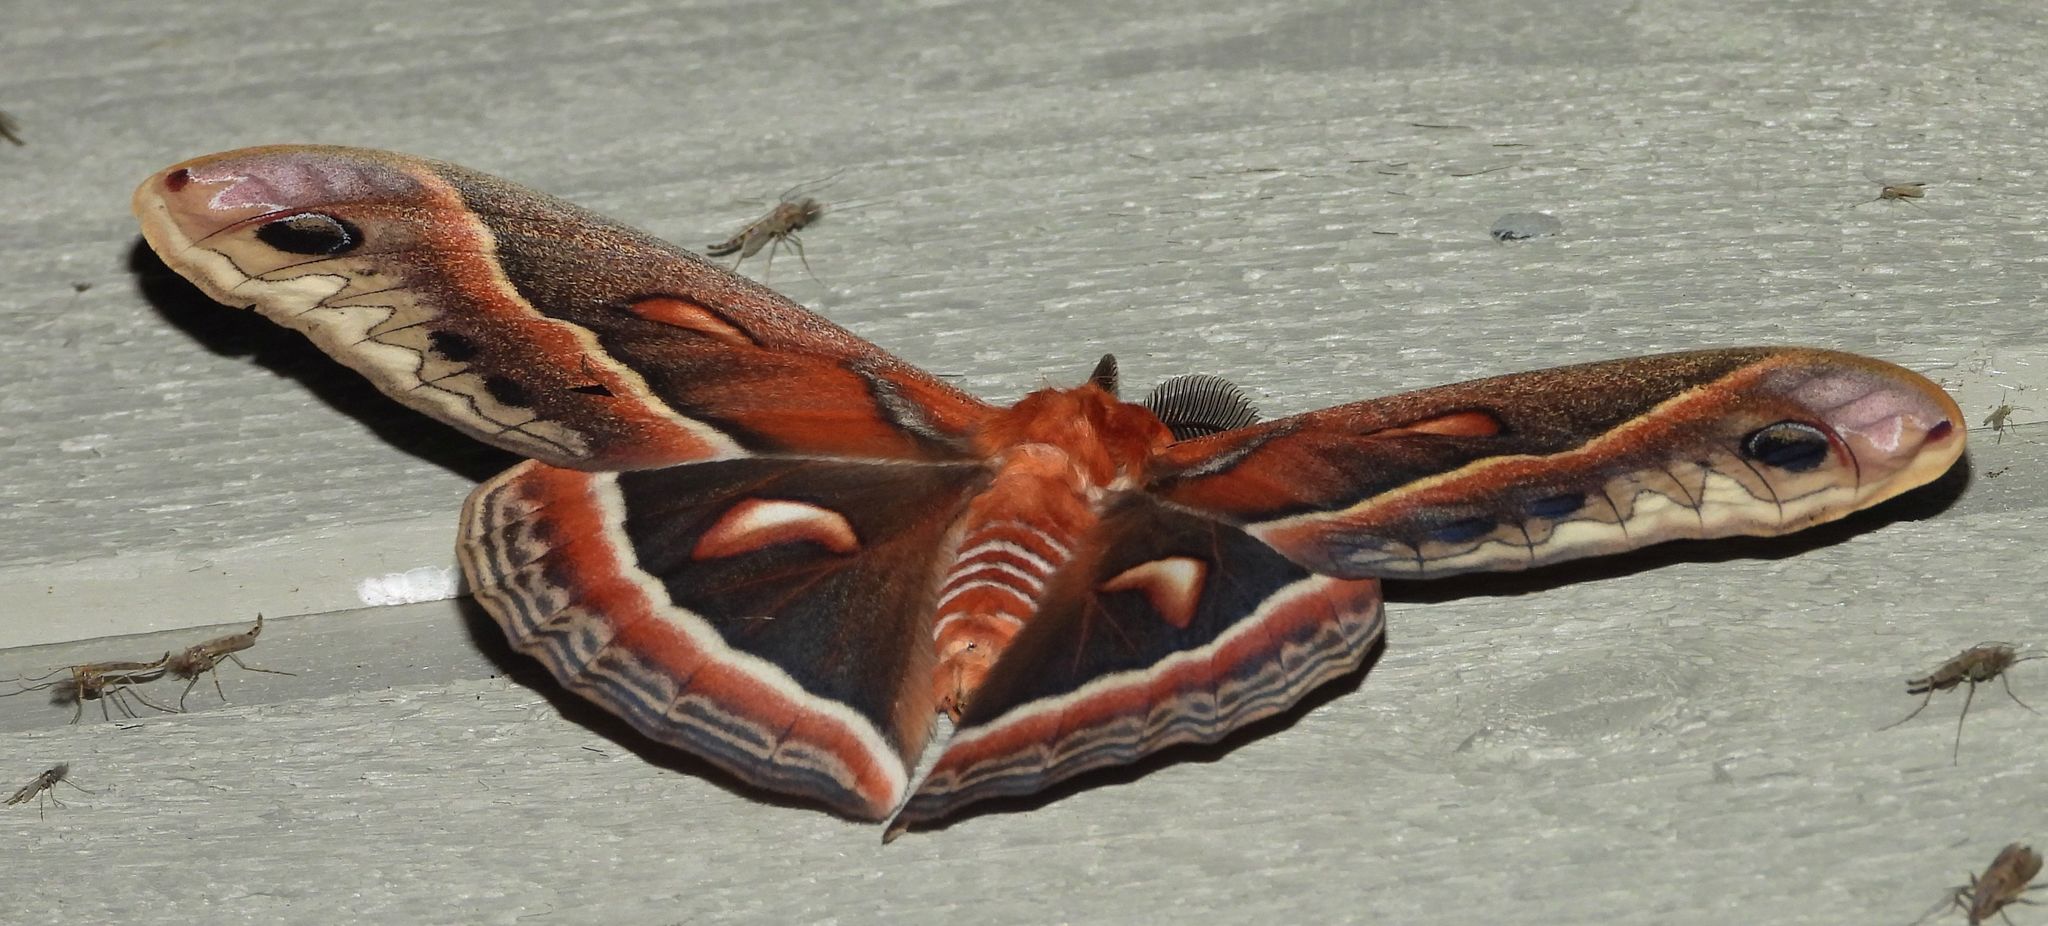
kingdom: Animalia
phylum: Arthropoda
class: Insecta
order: Lepidoptera
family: Saturniidae
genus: Hyalophora
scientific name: Hyalophora cecropia
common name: Cecropia silkmoth
